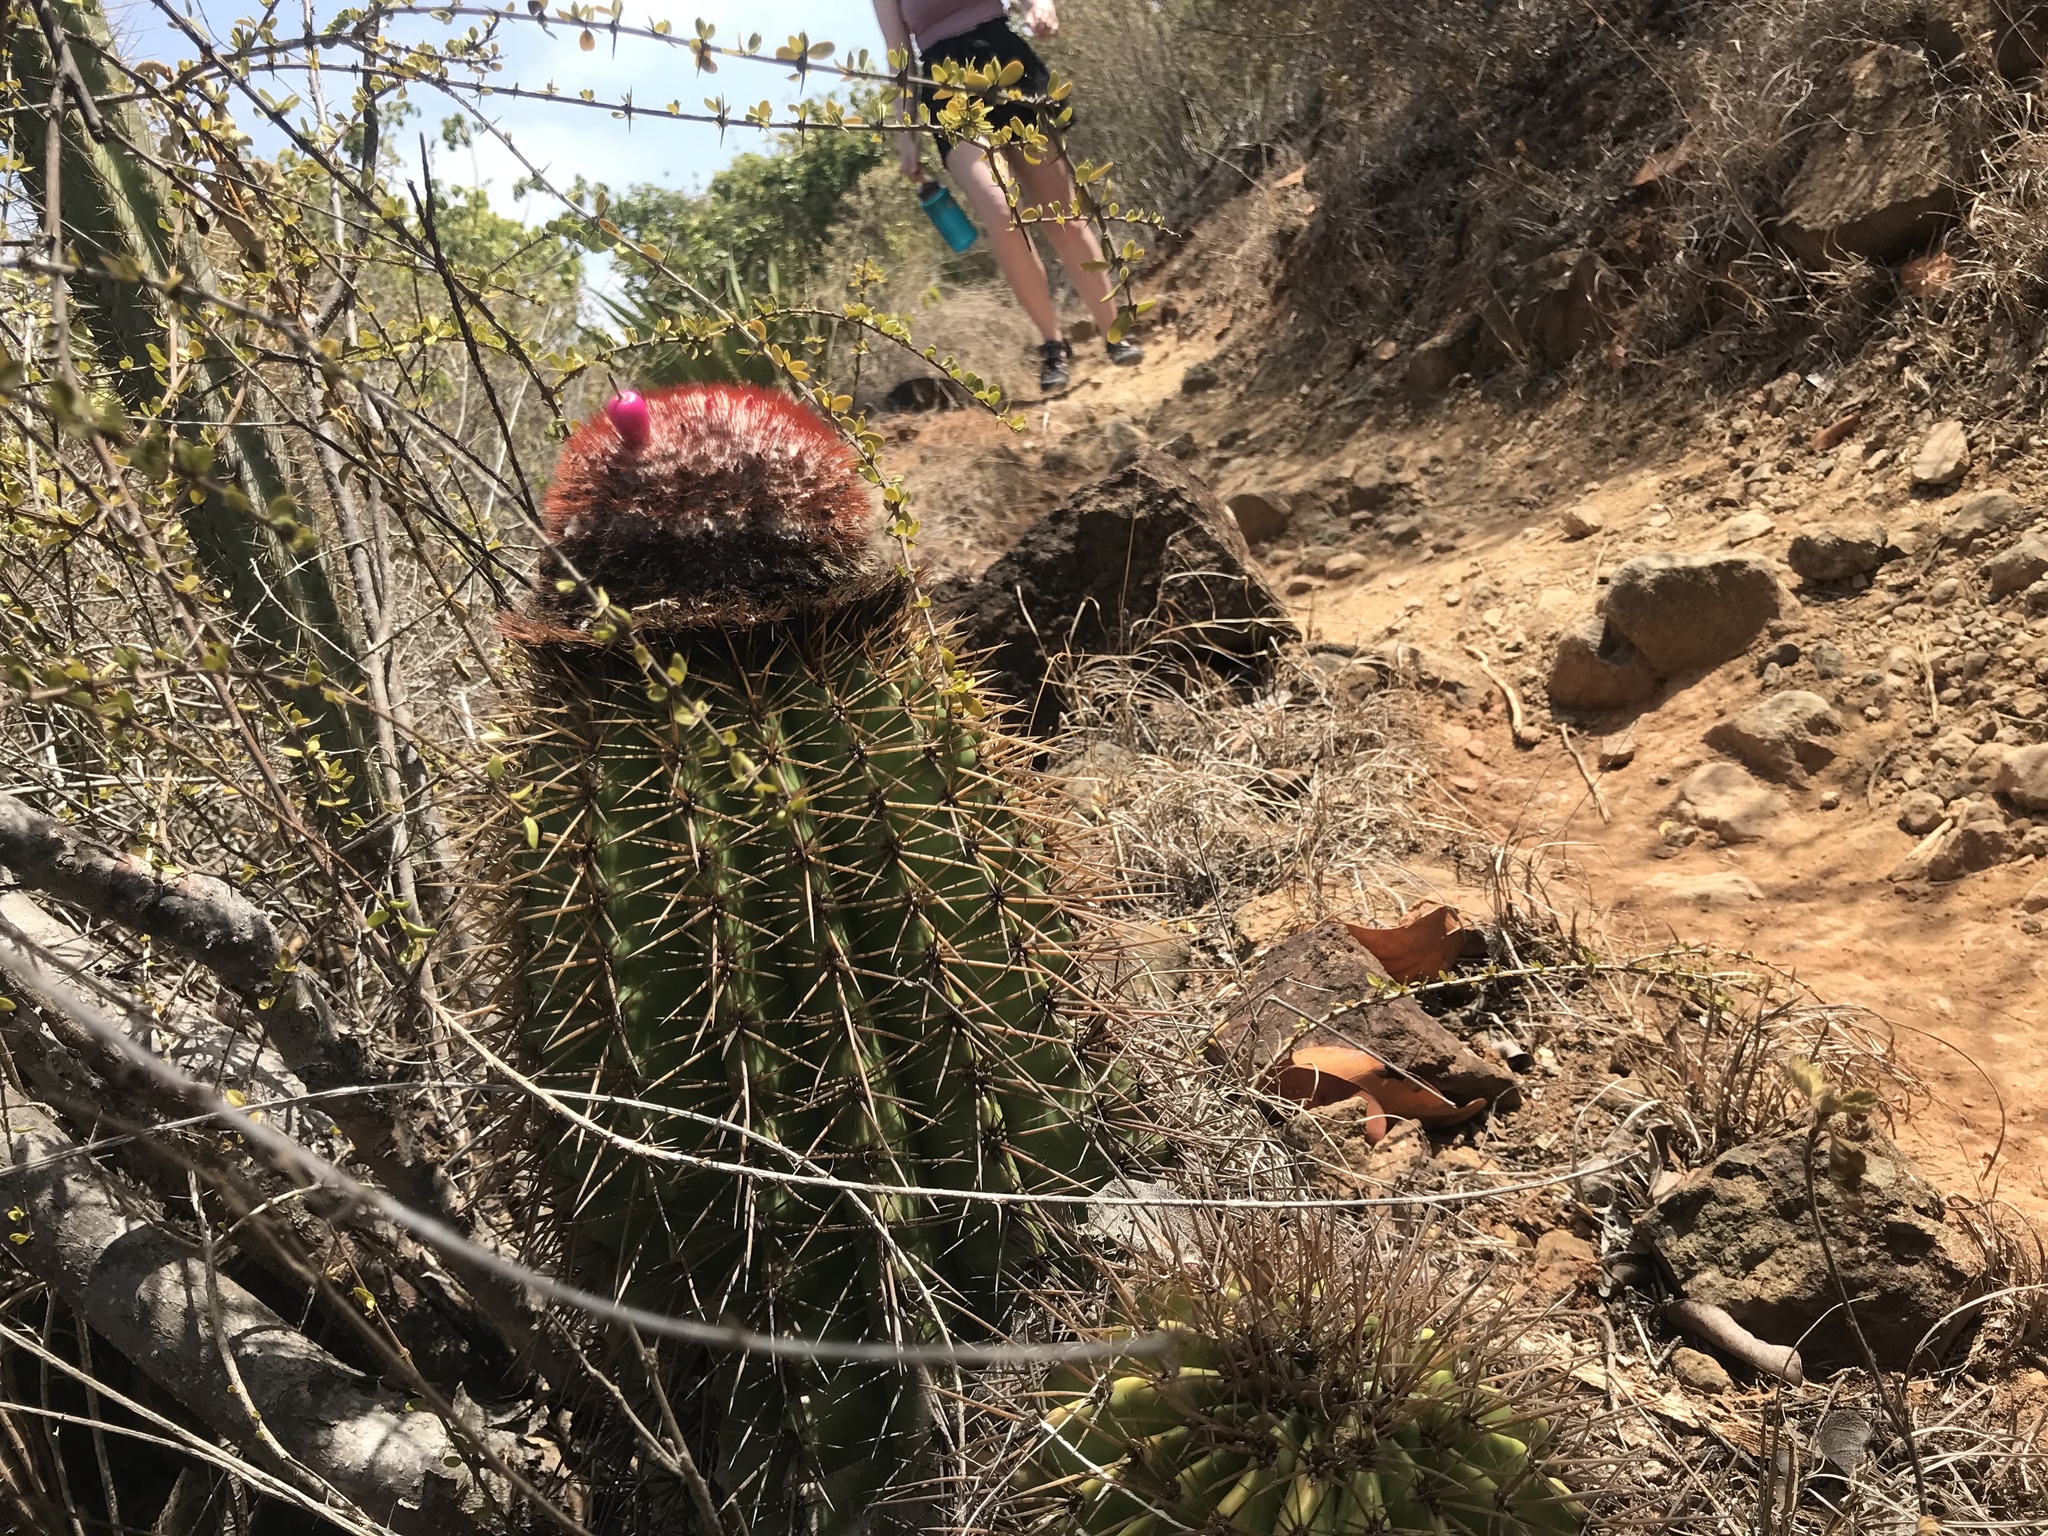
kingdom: Plantae
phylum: Tracheophyta
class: Magnoliopsida
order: Caryophyllales
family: Cactaceae
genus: Melocactus
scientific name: Melocactus intortus
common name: Barrel cactus
